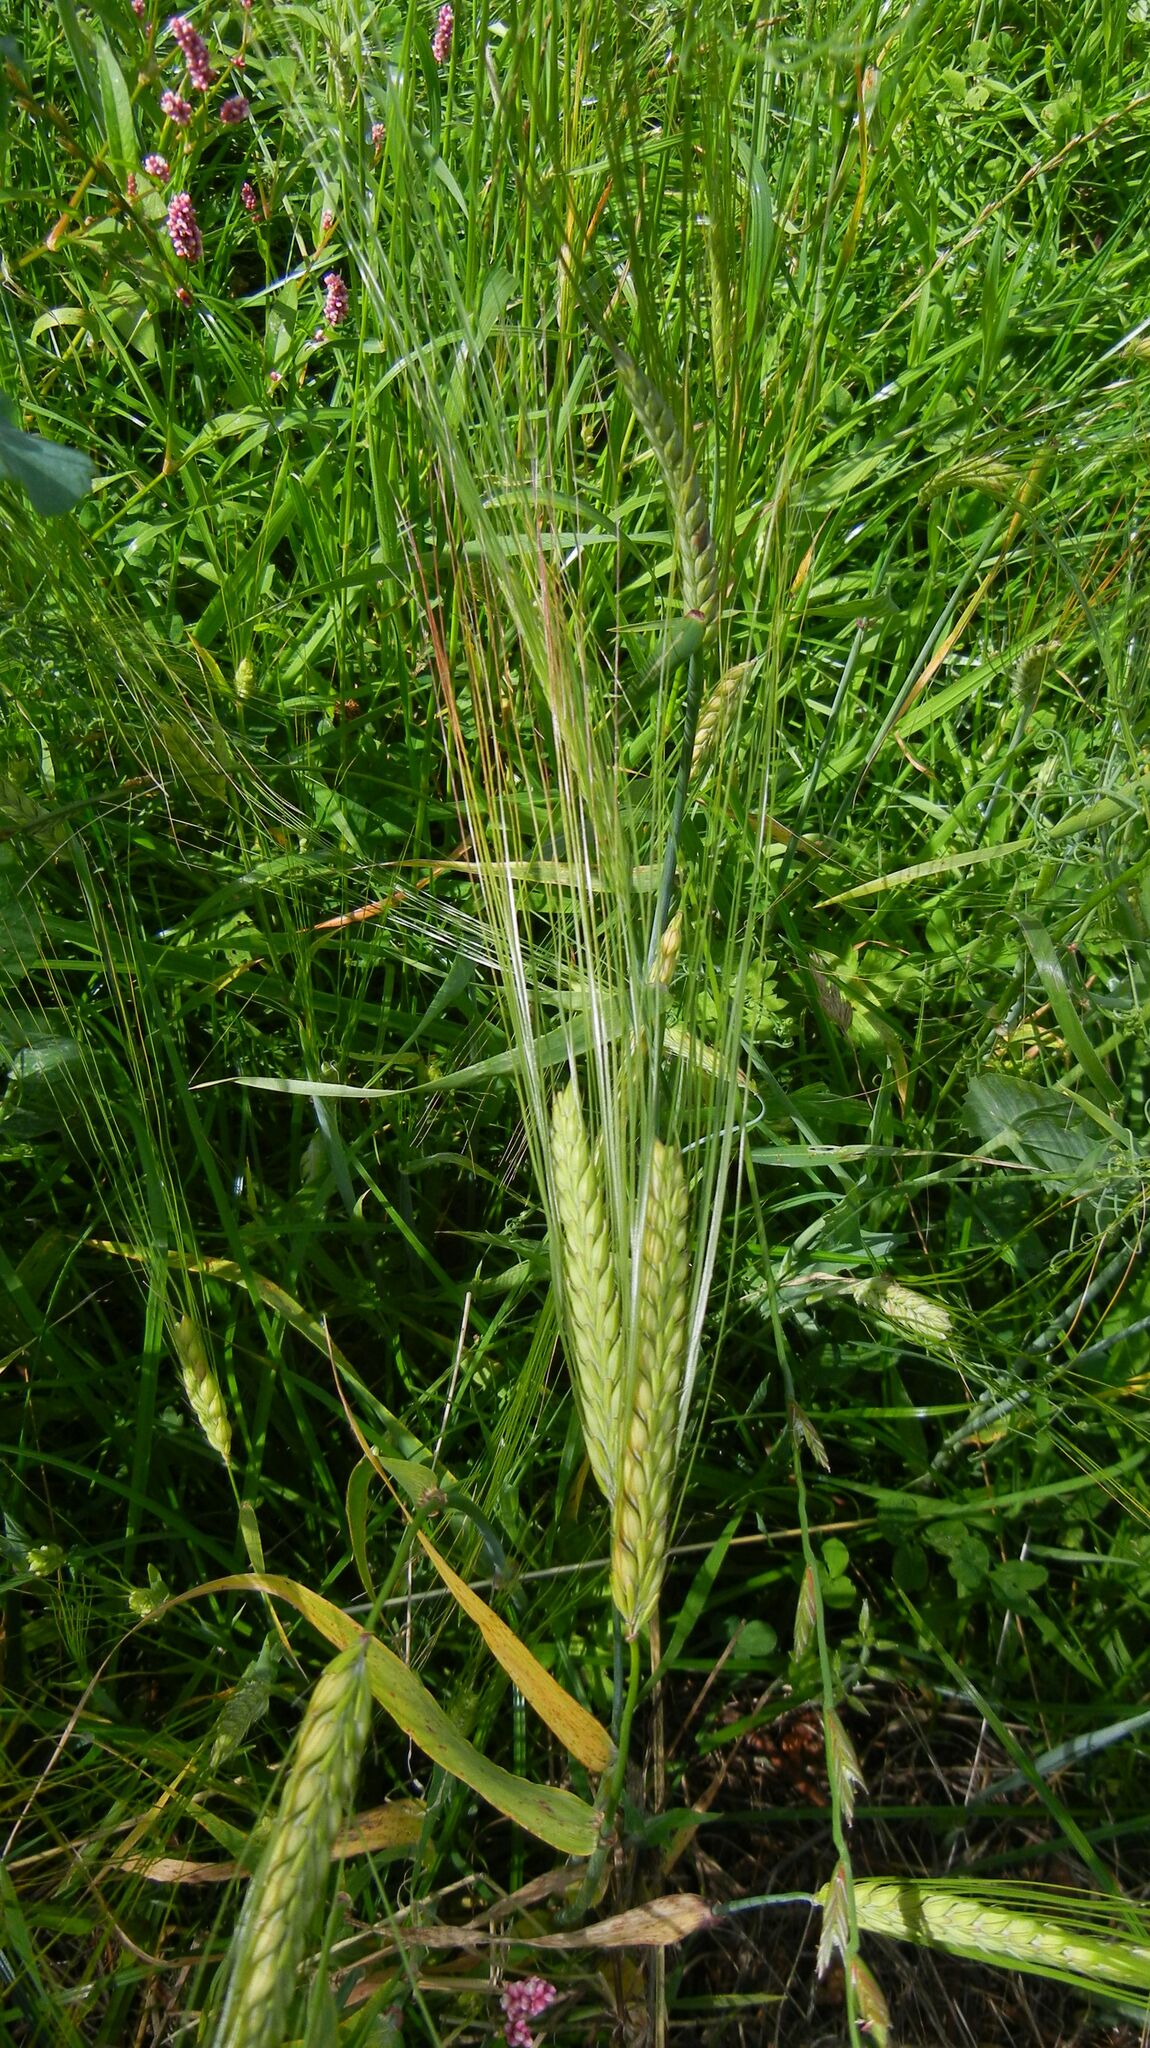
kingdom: Plantae
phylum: Tracheophyta
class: Liliopsida
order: Poales
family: Poaceae
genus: Hordeum
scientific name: Hordeum vulgare
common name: Common barley
